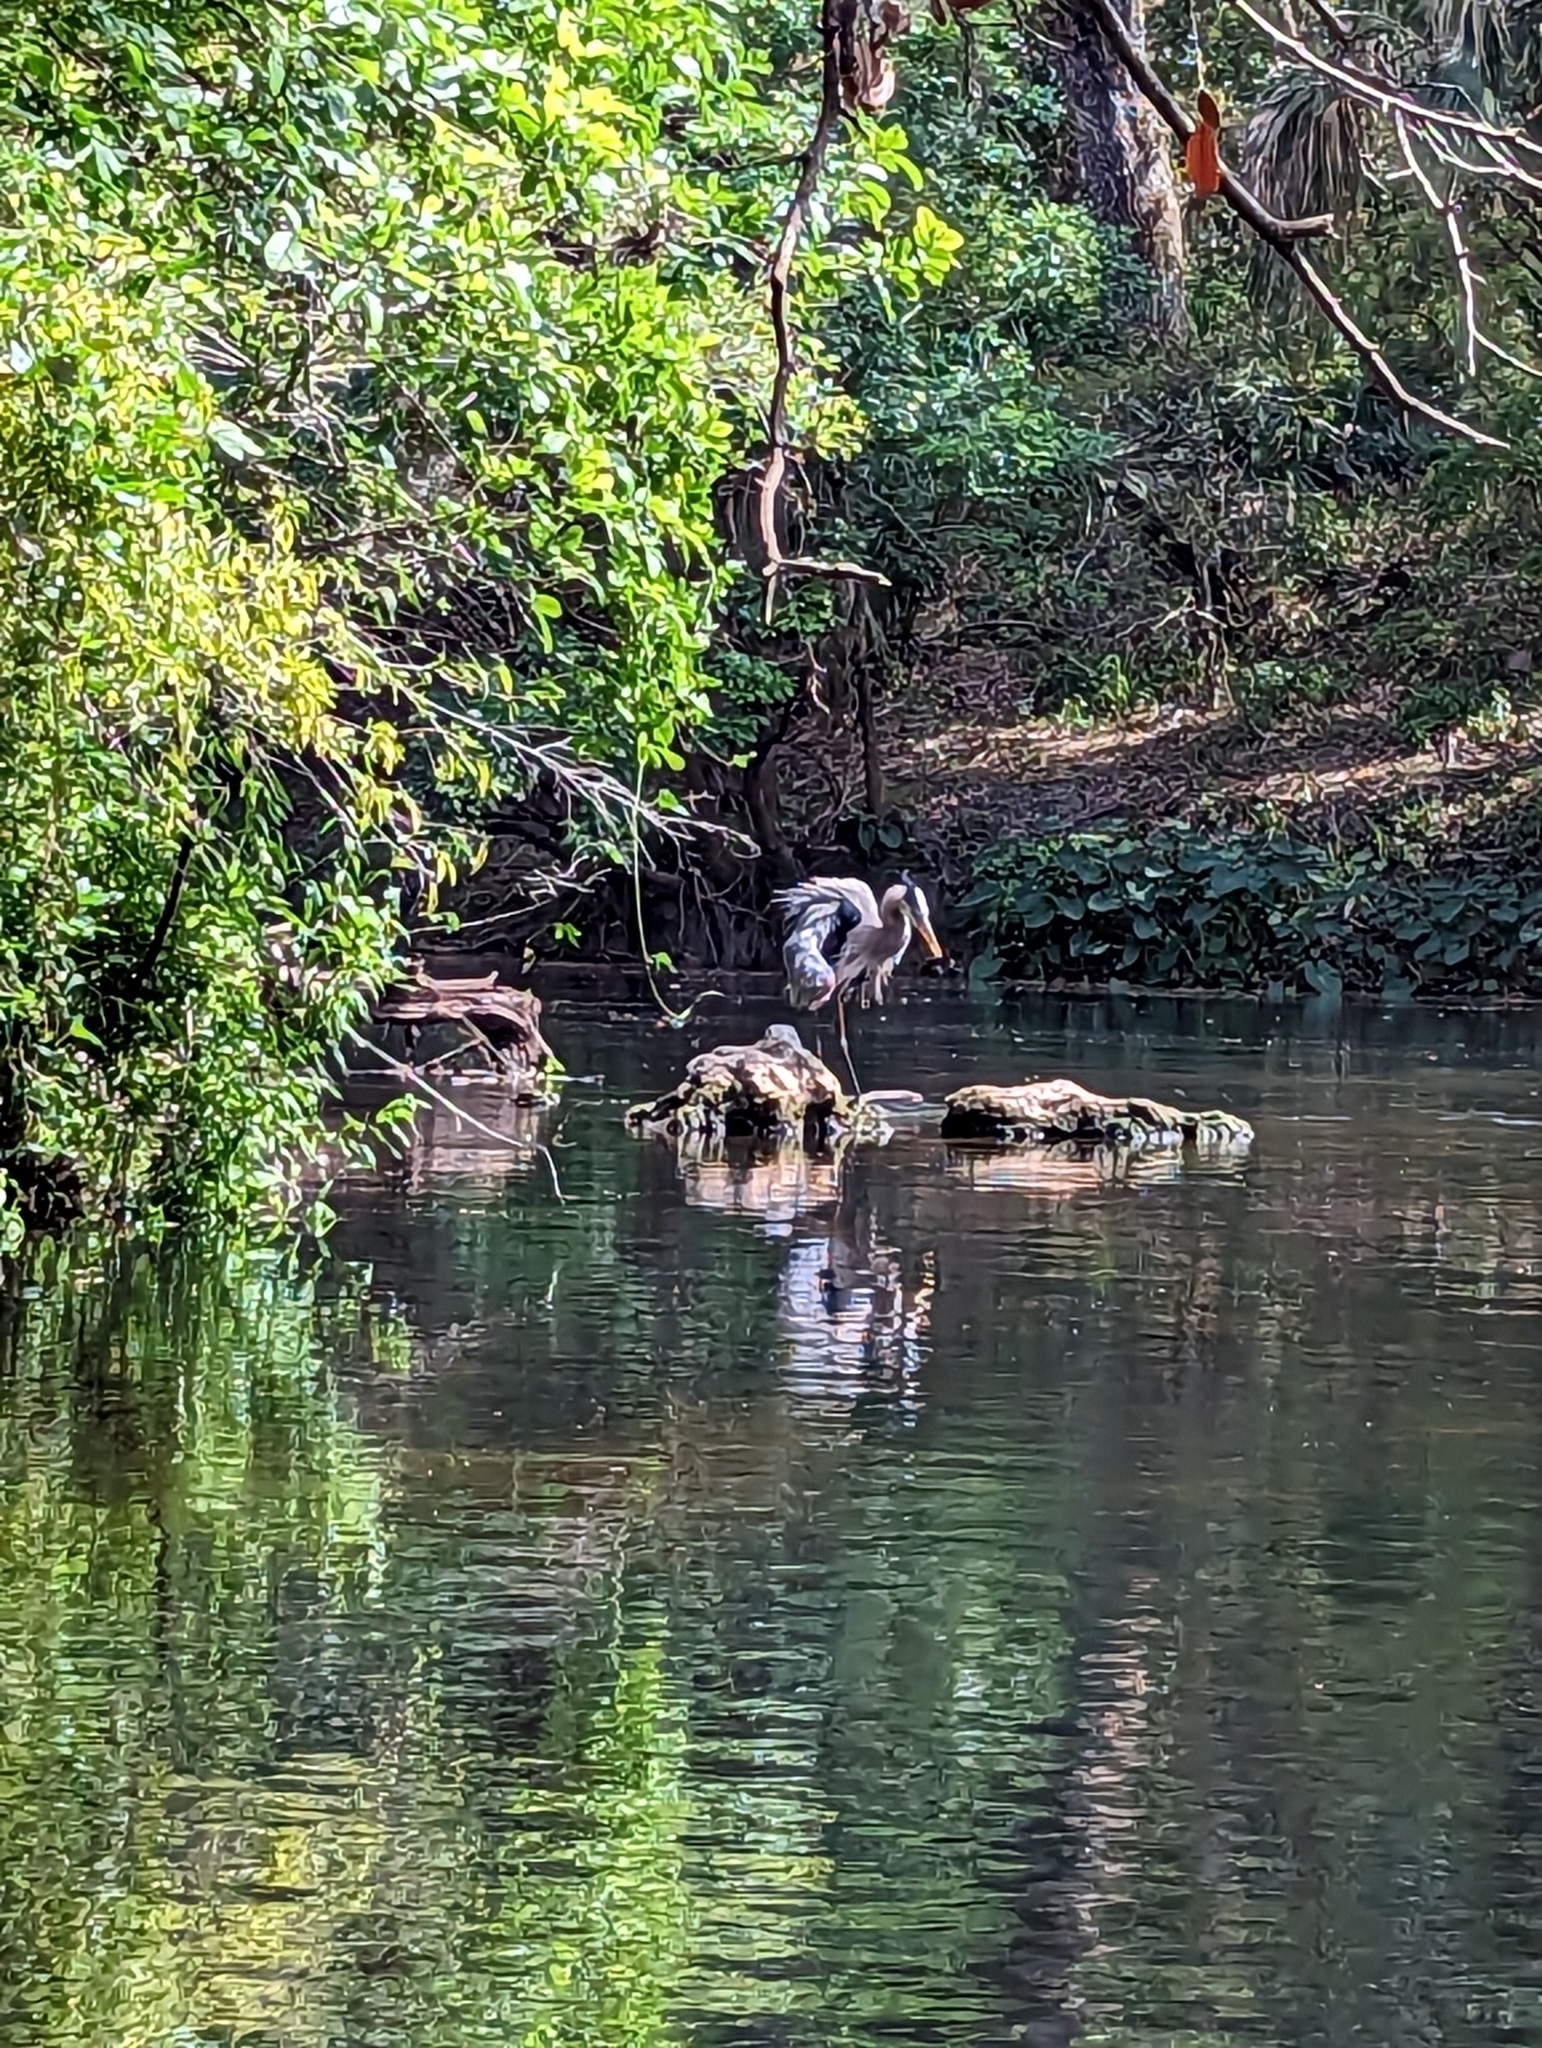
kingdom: Animalia
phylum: Chordata
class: Aves
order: Pelecaniformes
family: Ardeidae
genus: Ardea
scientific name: Ardea herodias
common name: Great blue heron
